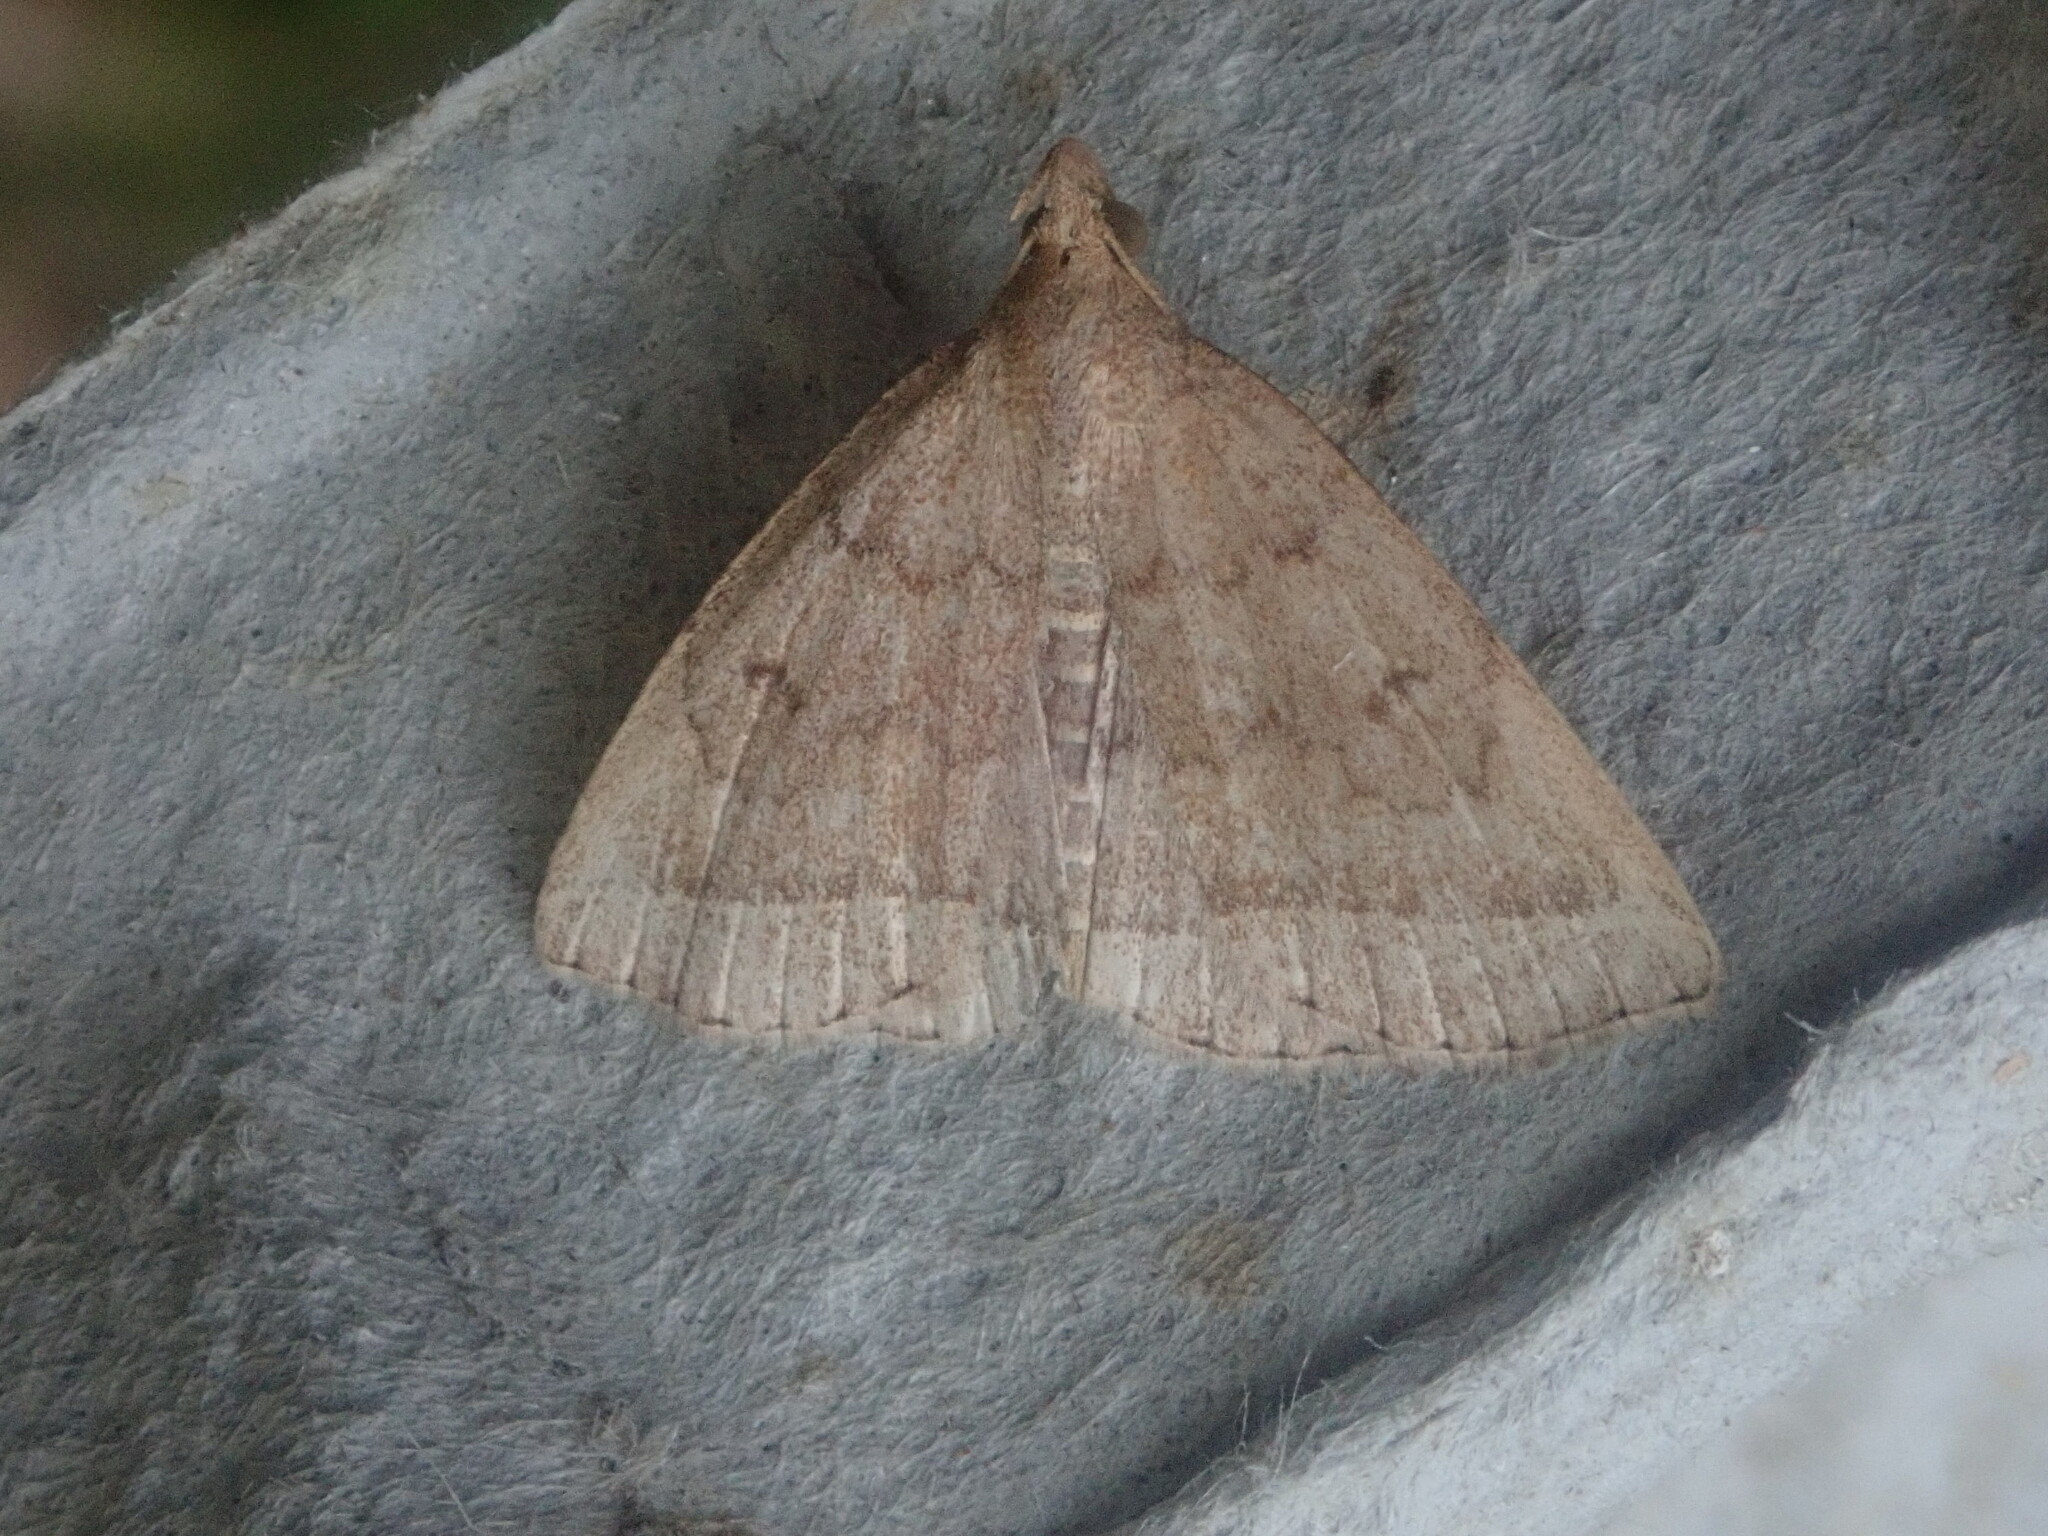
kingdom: Animalia
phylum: Arthropoda
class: Insecta
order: Lepidoptera
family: Erebidae
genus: Zanclognatha
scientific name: Zanclognatha jacchusalis
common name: Yellowish zanclognatha
